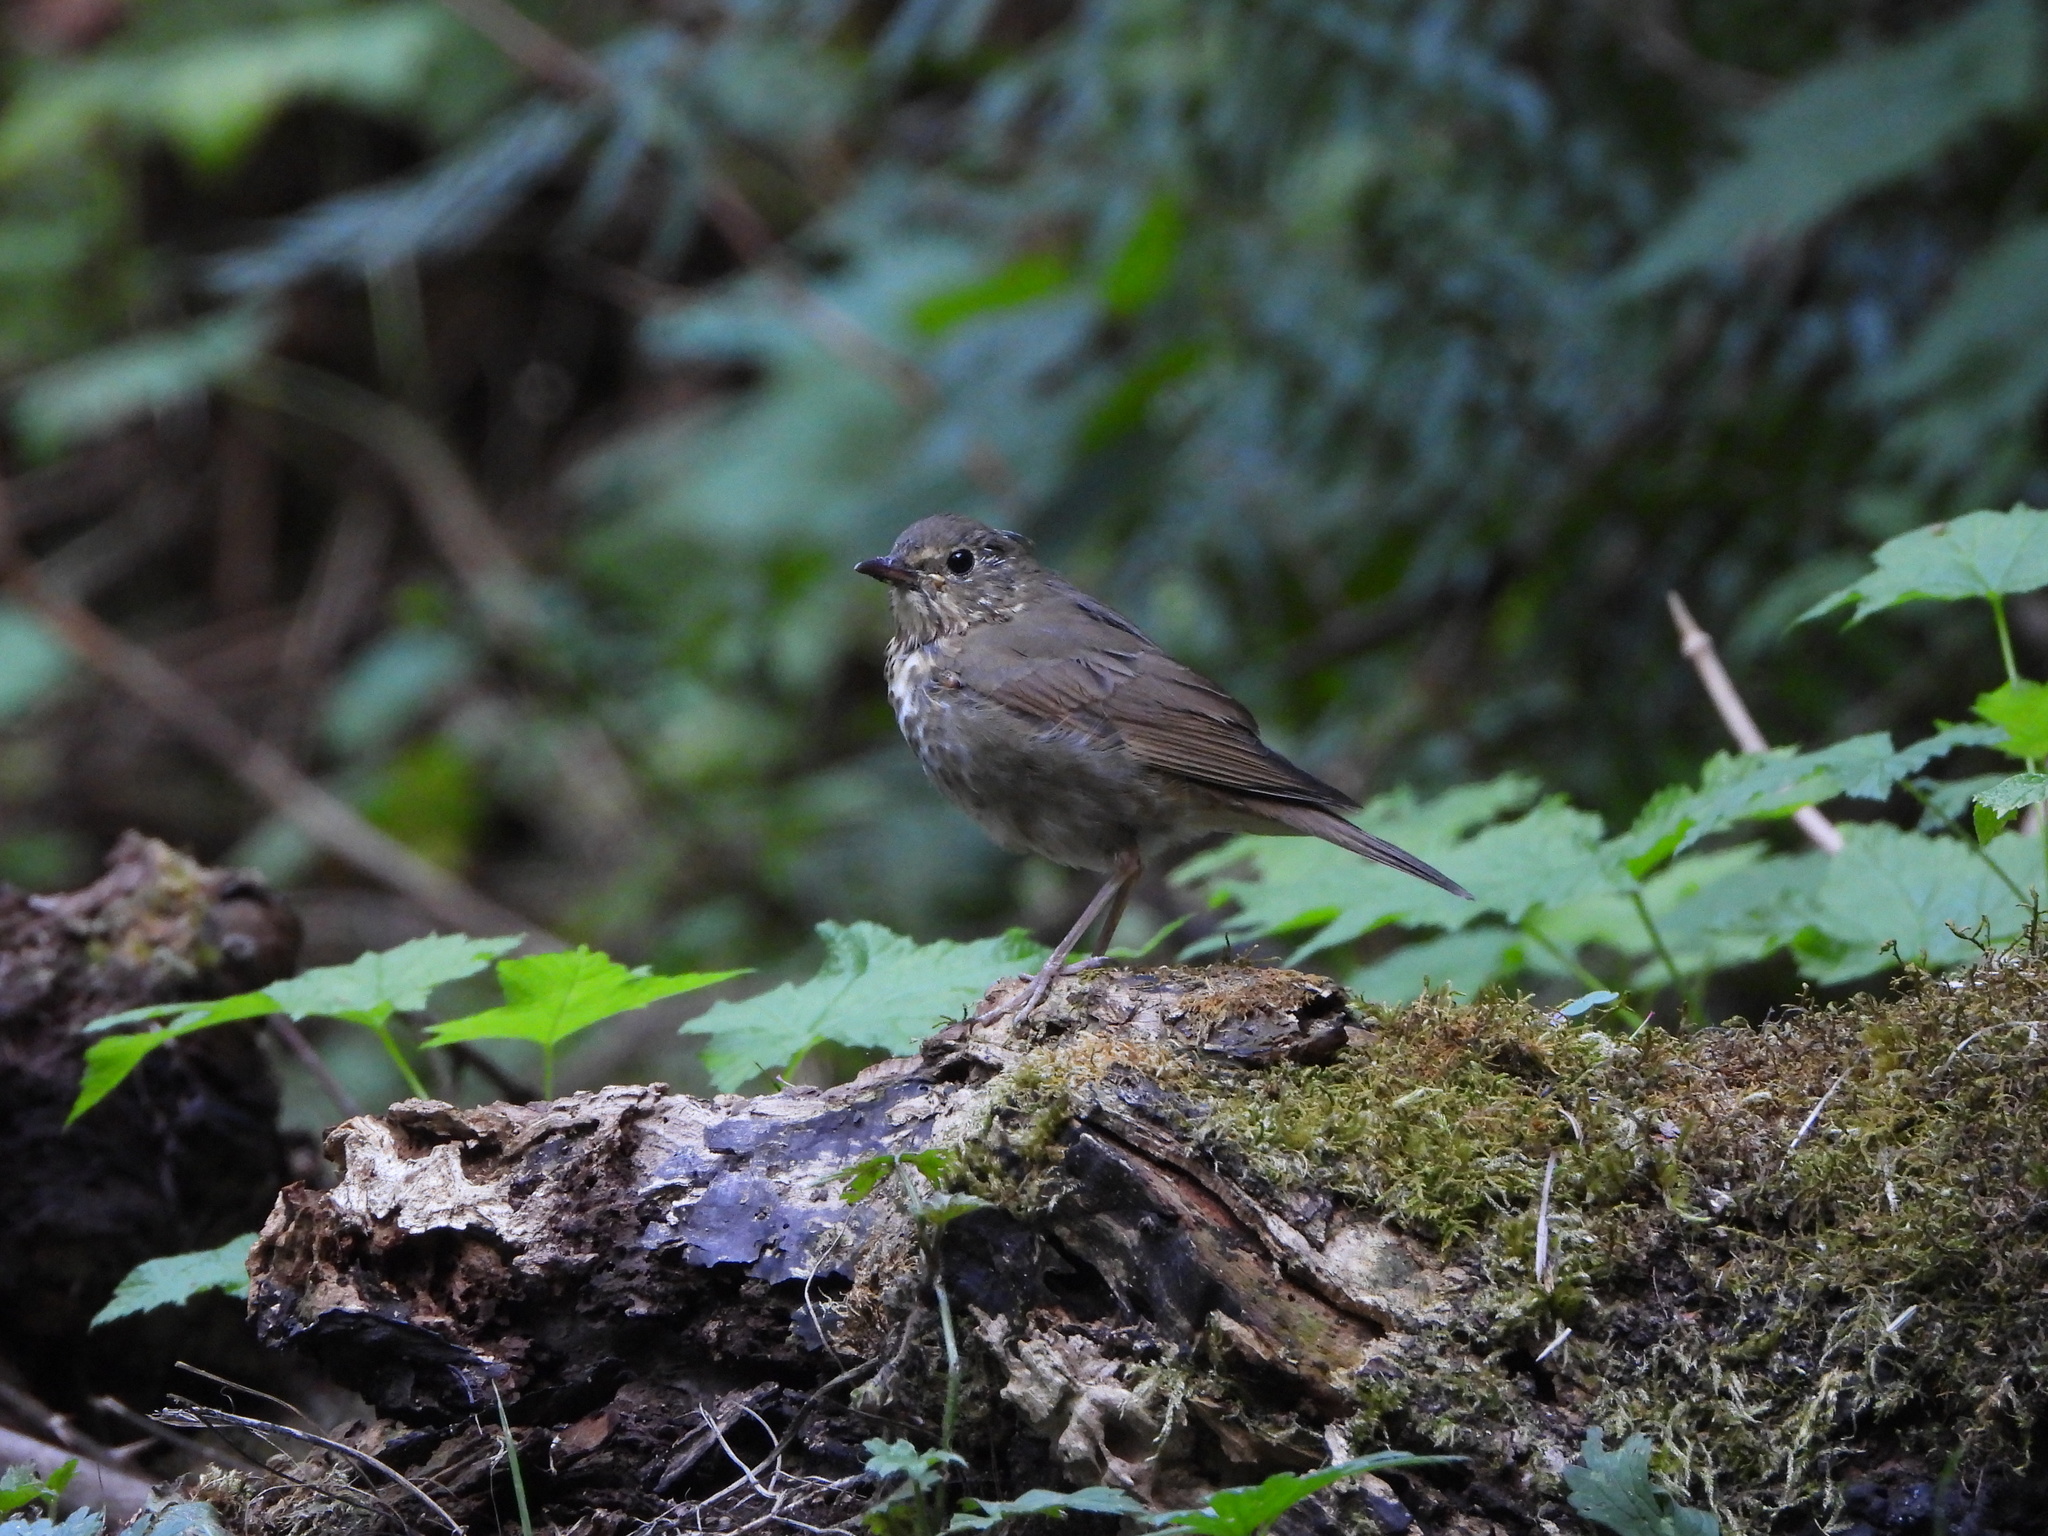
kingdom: Animalia
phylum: Chordata
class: Aves
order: Passeriformes
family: Turdidae
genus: Catharus
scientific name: Catharus ustulatus
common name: Swainson's thrush
